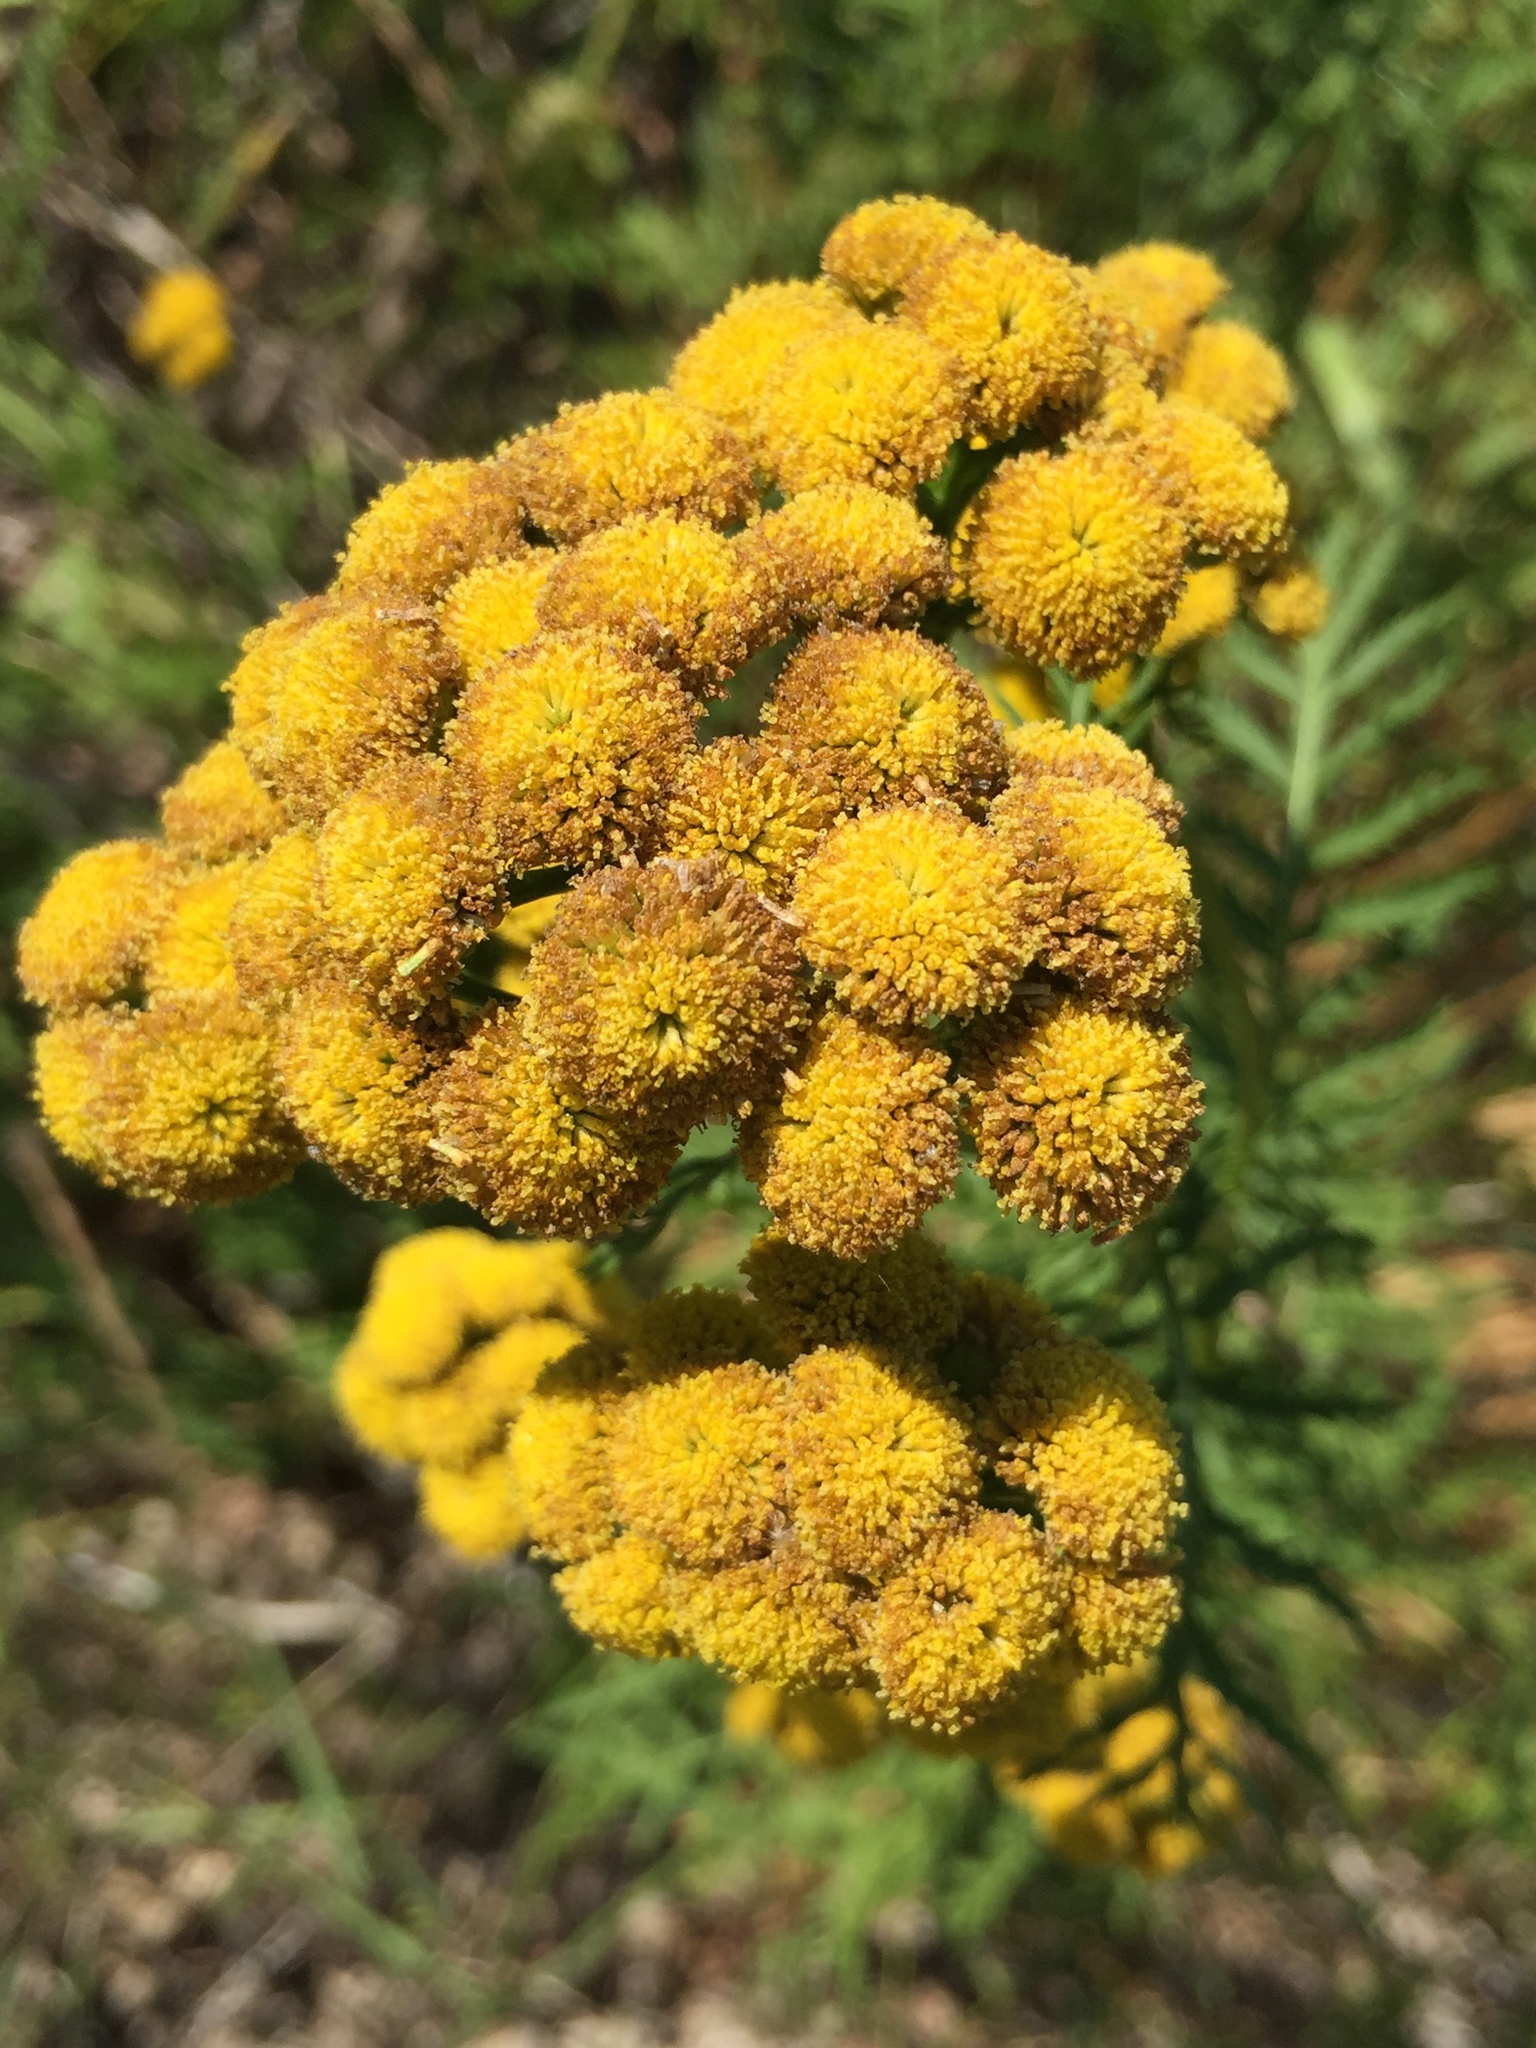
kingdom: Plantae
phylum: Tracheophyta
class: Magnoliopsida
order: Asterales
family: Asteraceae
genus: Tanacetum
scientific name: Tanacetum vulgare
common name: Common tansy
